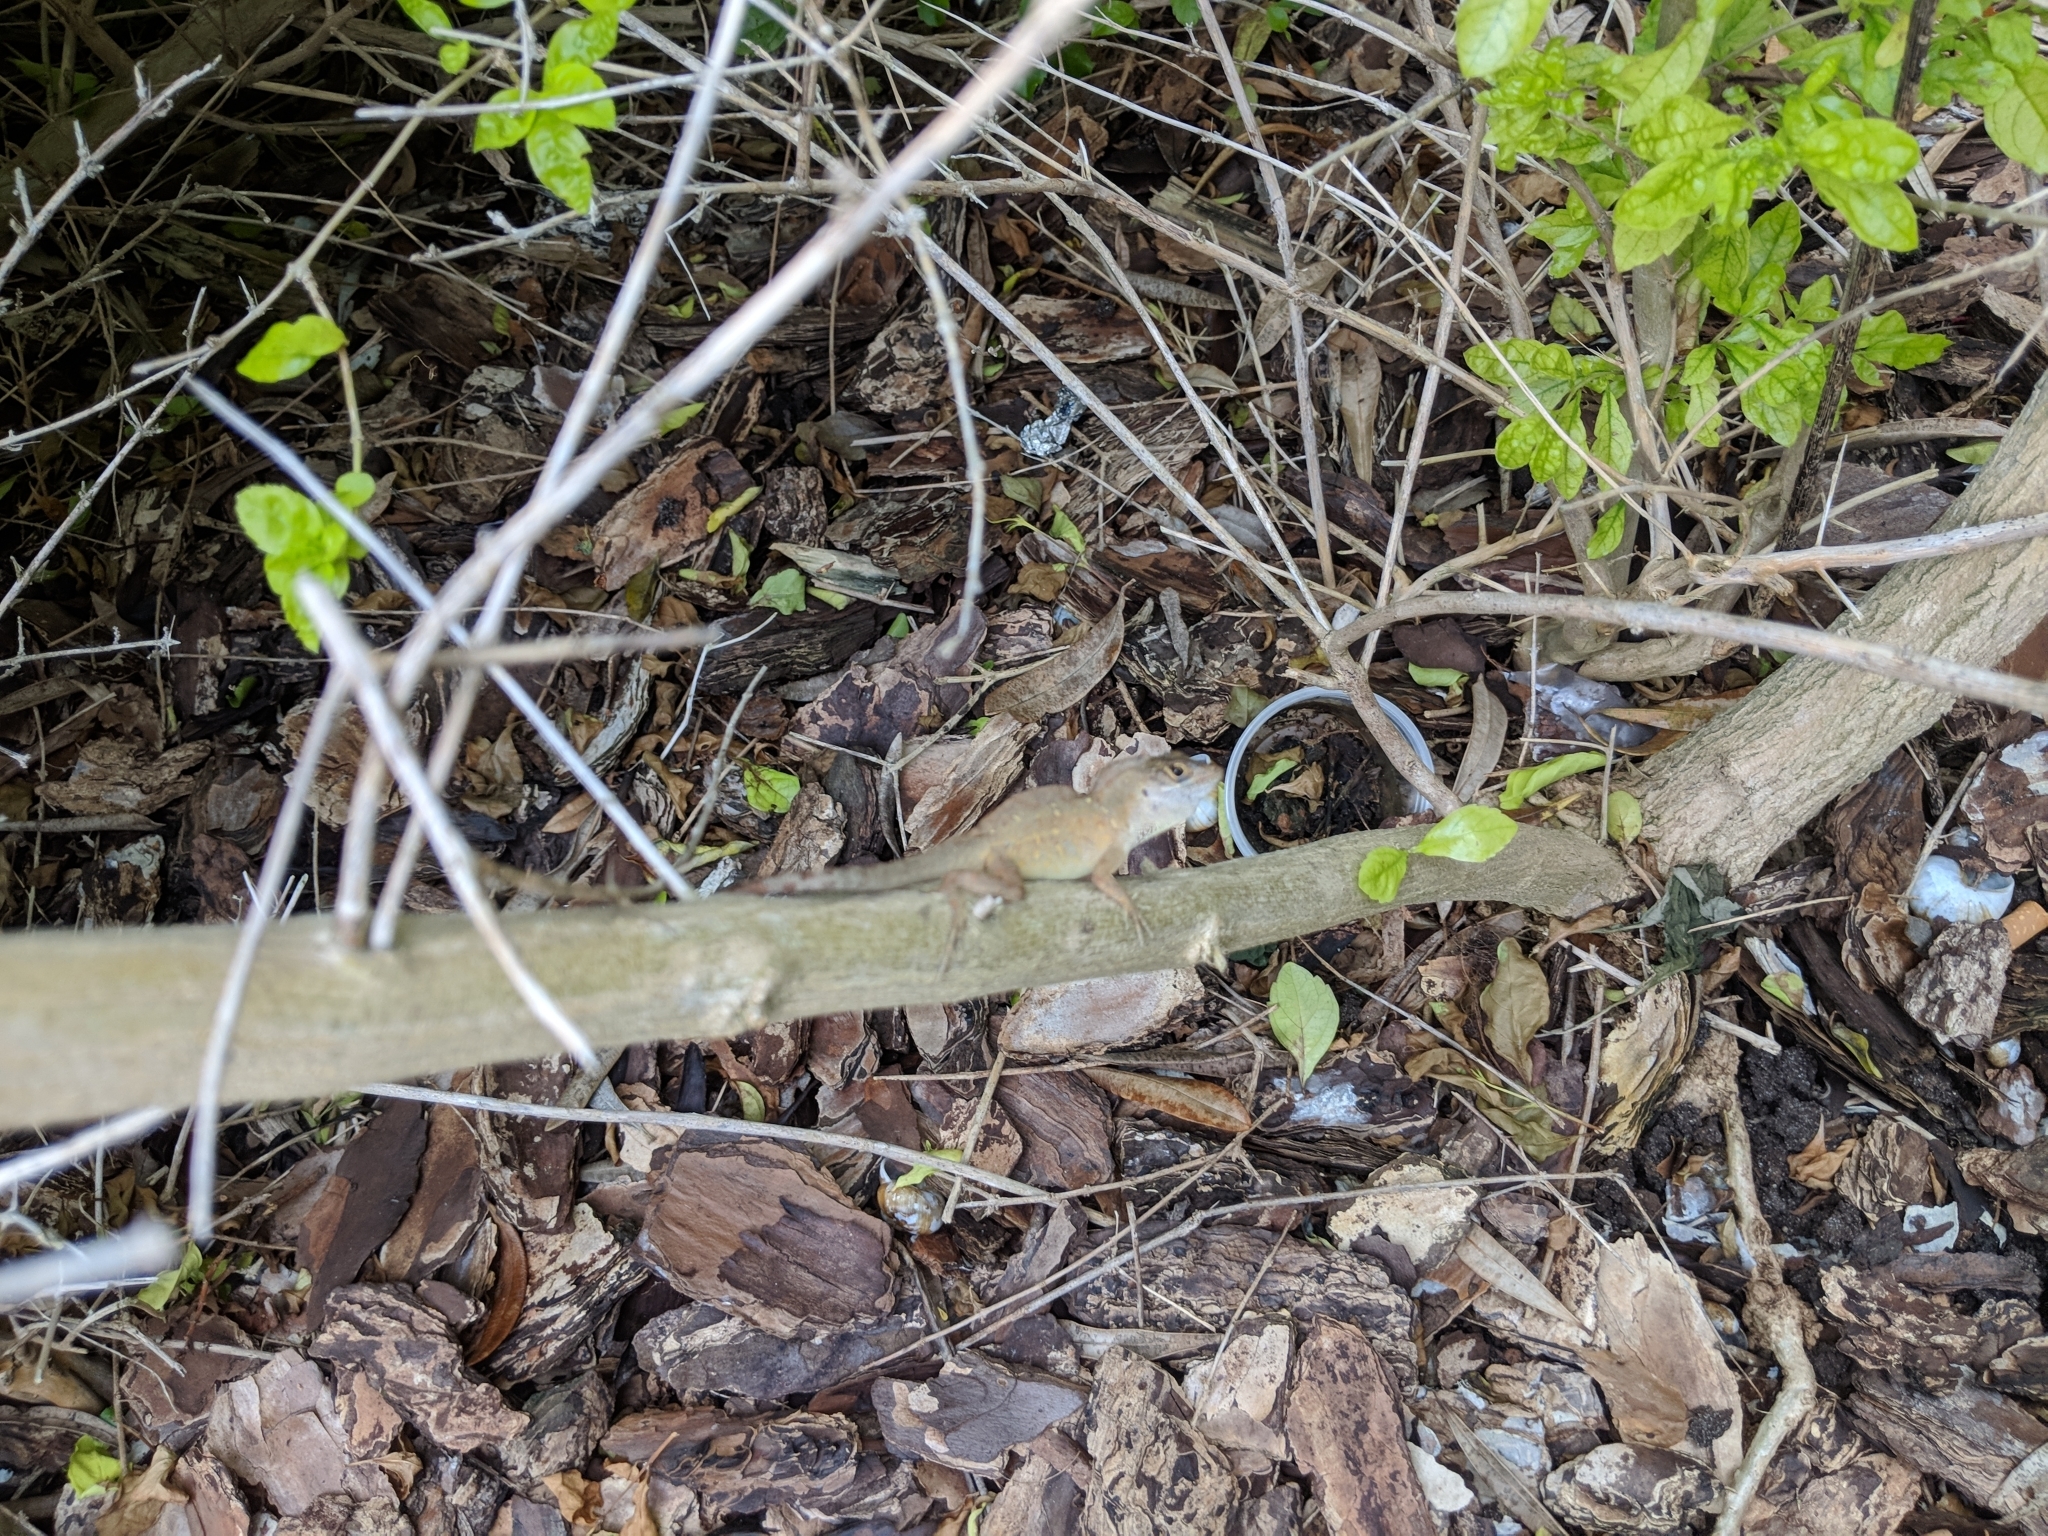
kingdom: Animalia
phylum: Chordata
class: Squamata
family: Dactyloidae
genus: Anolis
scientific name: Anolis sagrei
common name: Brown anole
